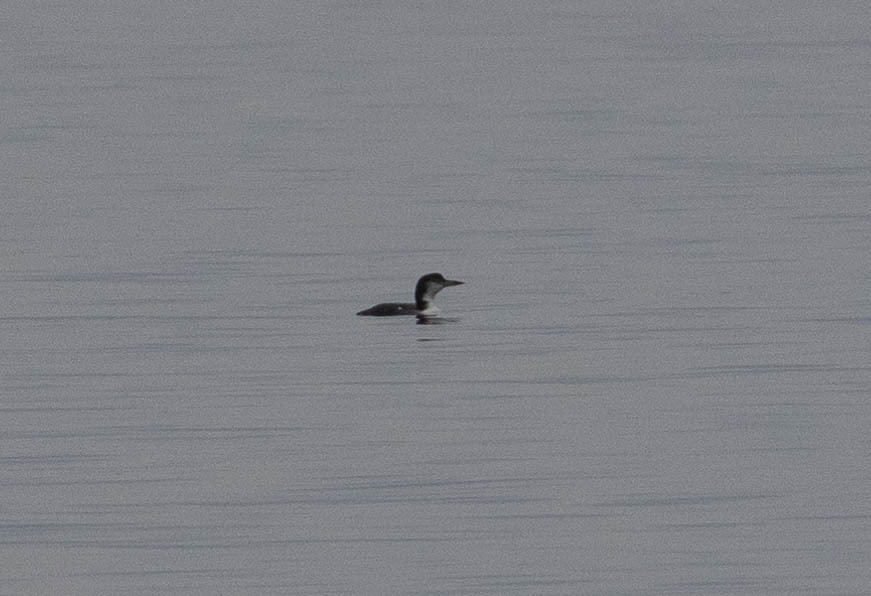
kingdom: Animalia
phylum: Chordata
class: Aves
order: Gaviiformes
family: Gaviidae
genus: Gavia
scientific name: Gavia immer
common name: Common loon
